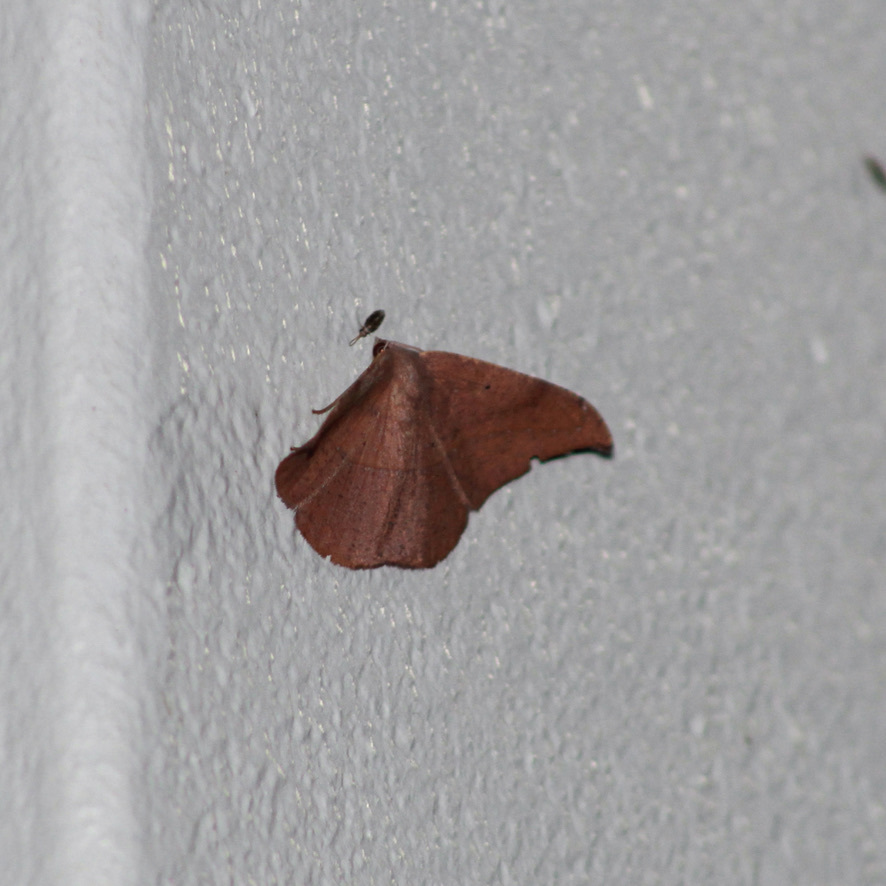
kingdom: Animalia
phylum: Arthropoda
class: Insecta
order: Lepidoptera
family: Geometridae
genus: Patalene
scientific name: Patalene hamulata
